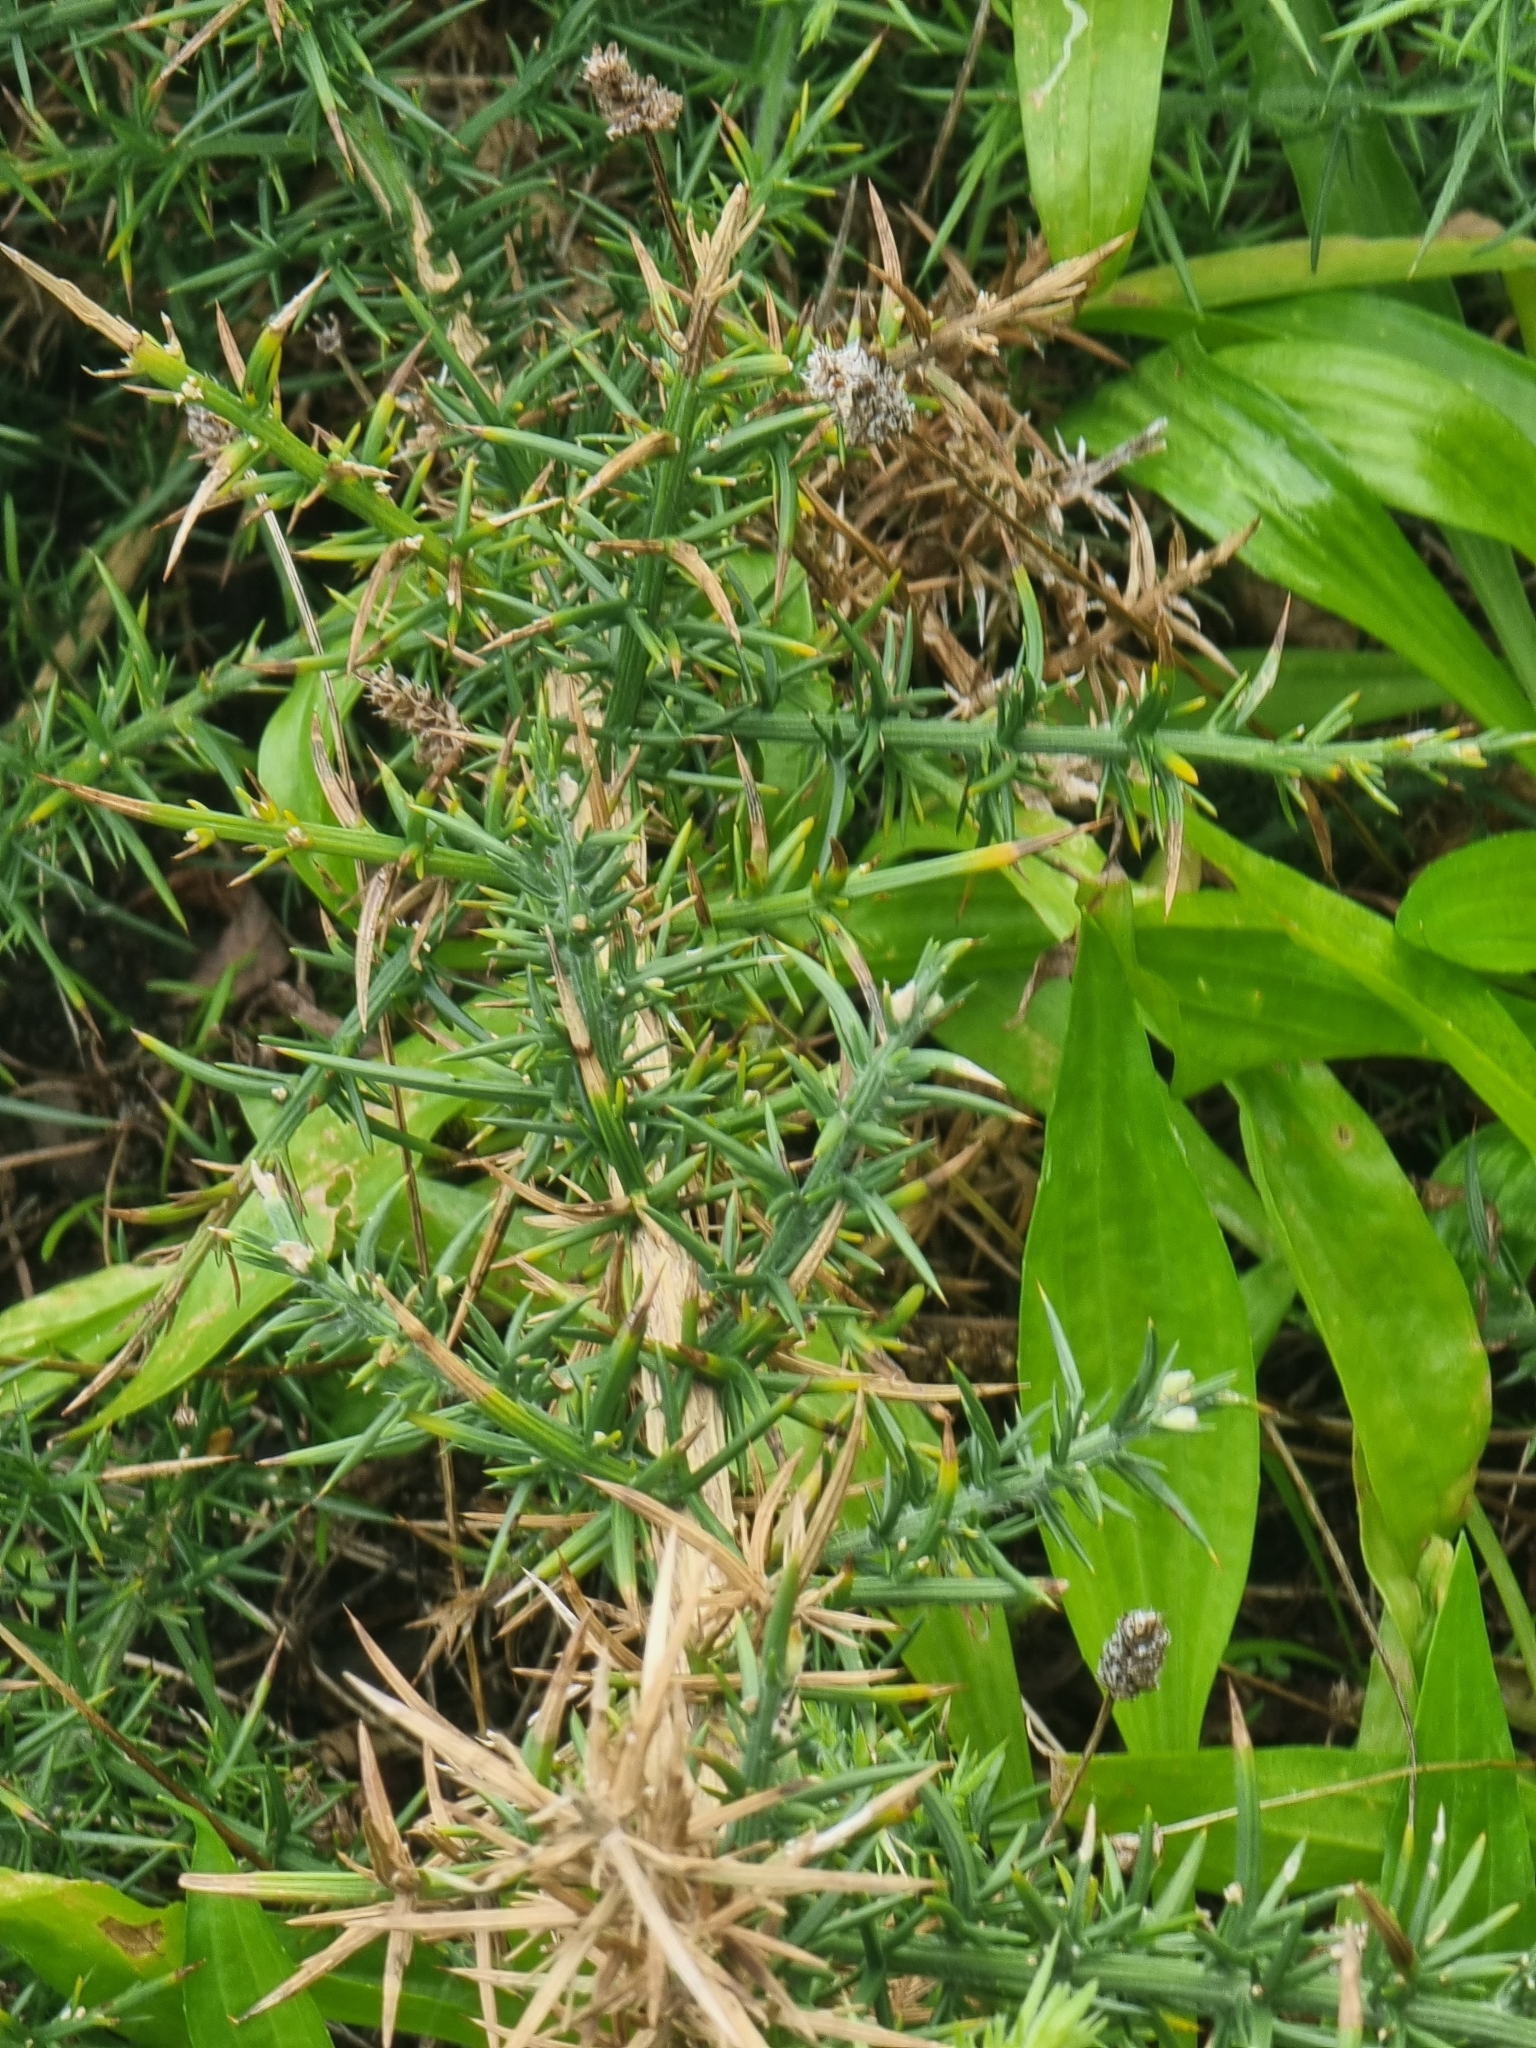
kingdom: Plantae
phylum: Tracheophyta
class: Magnoliopsida
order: Fabales
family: Fabaceae
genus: Ulex
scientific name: Ulex europaeus
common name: Common gorse
